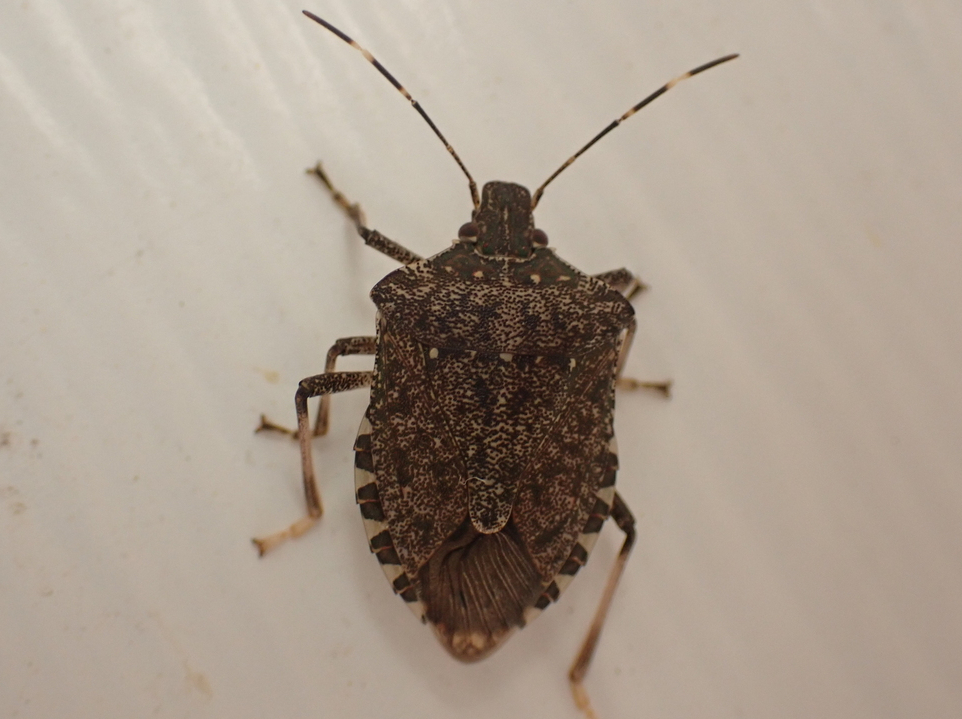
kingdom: Animalia
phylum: Arthropoda
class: Insecta
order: Hemiptera
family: Pentatomidae
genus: Halyomorpha
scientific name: Halyomorpha halys
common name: Brown marmorated stink bug
